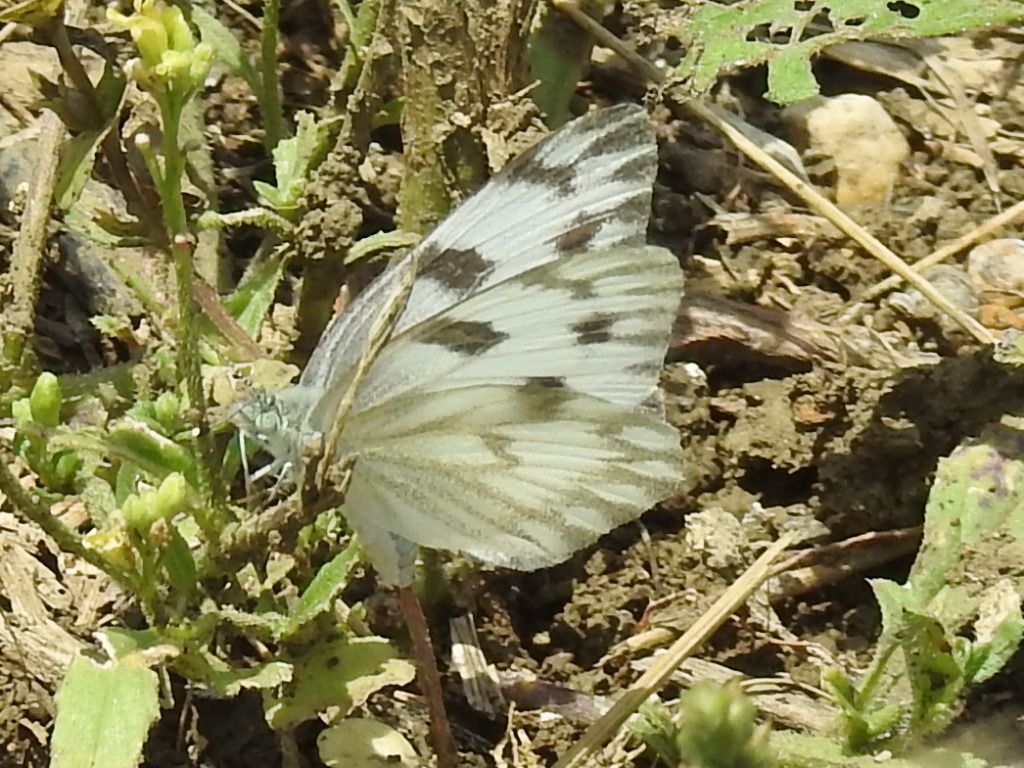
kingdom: Animalia
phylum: Arthropoda
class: Insecta
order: Lepidoptera
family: Pieridae
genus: Pontia
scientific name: Pontia protodice
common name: Checkered white
